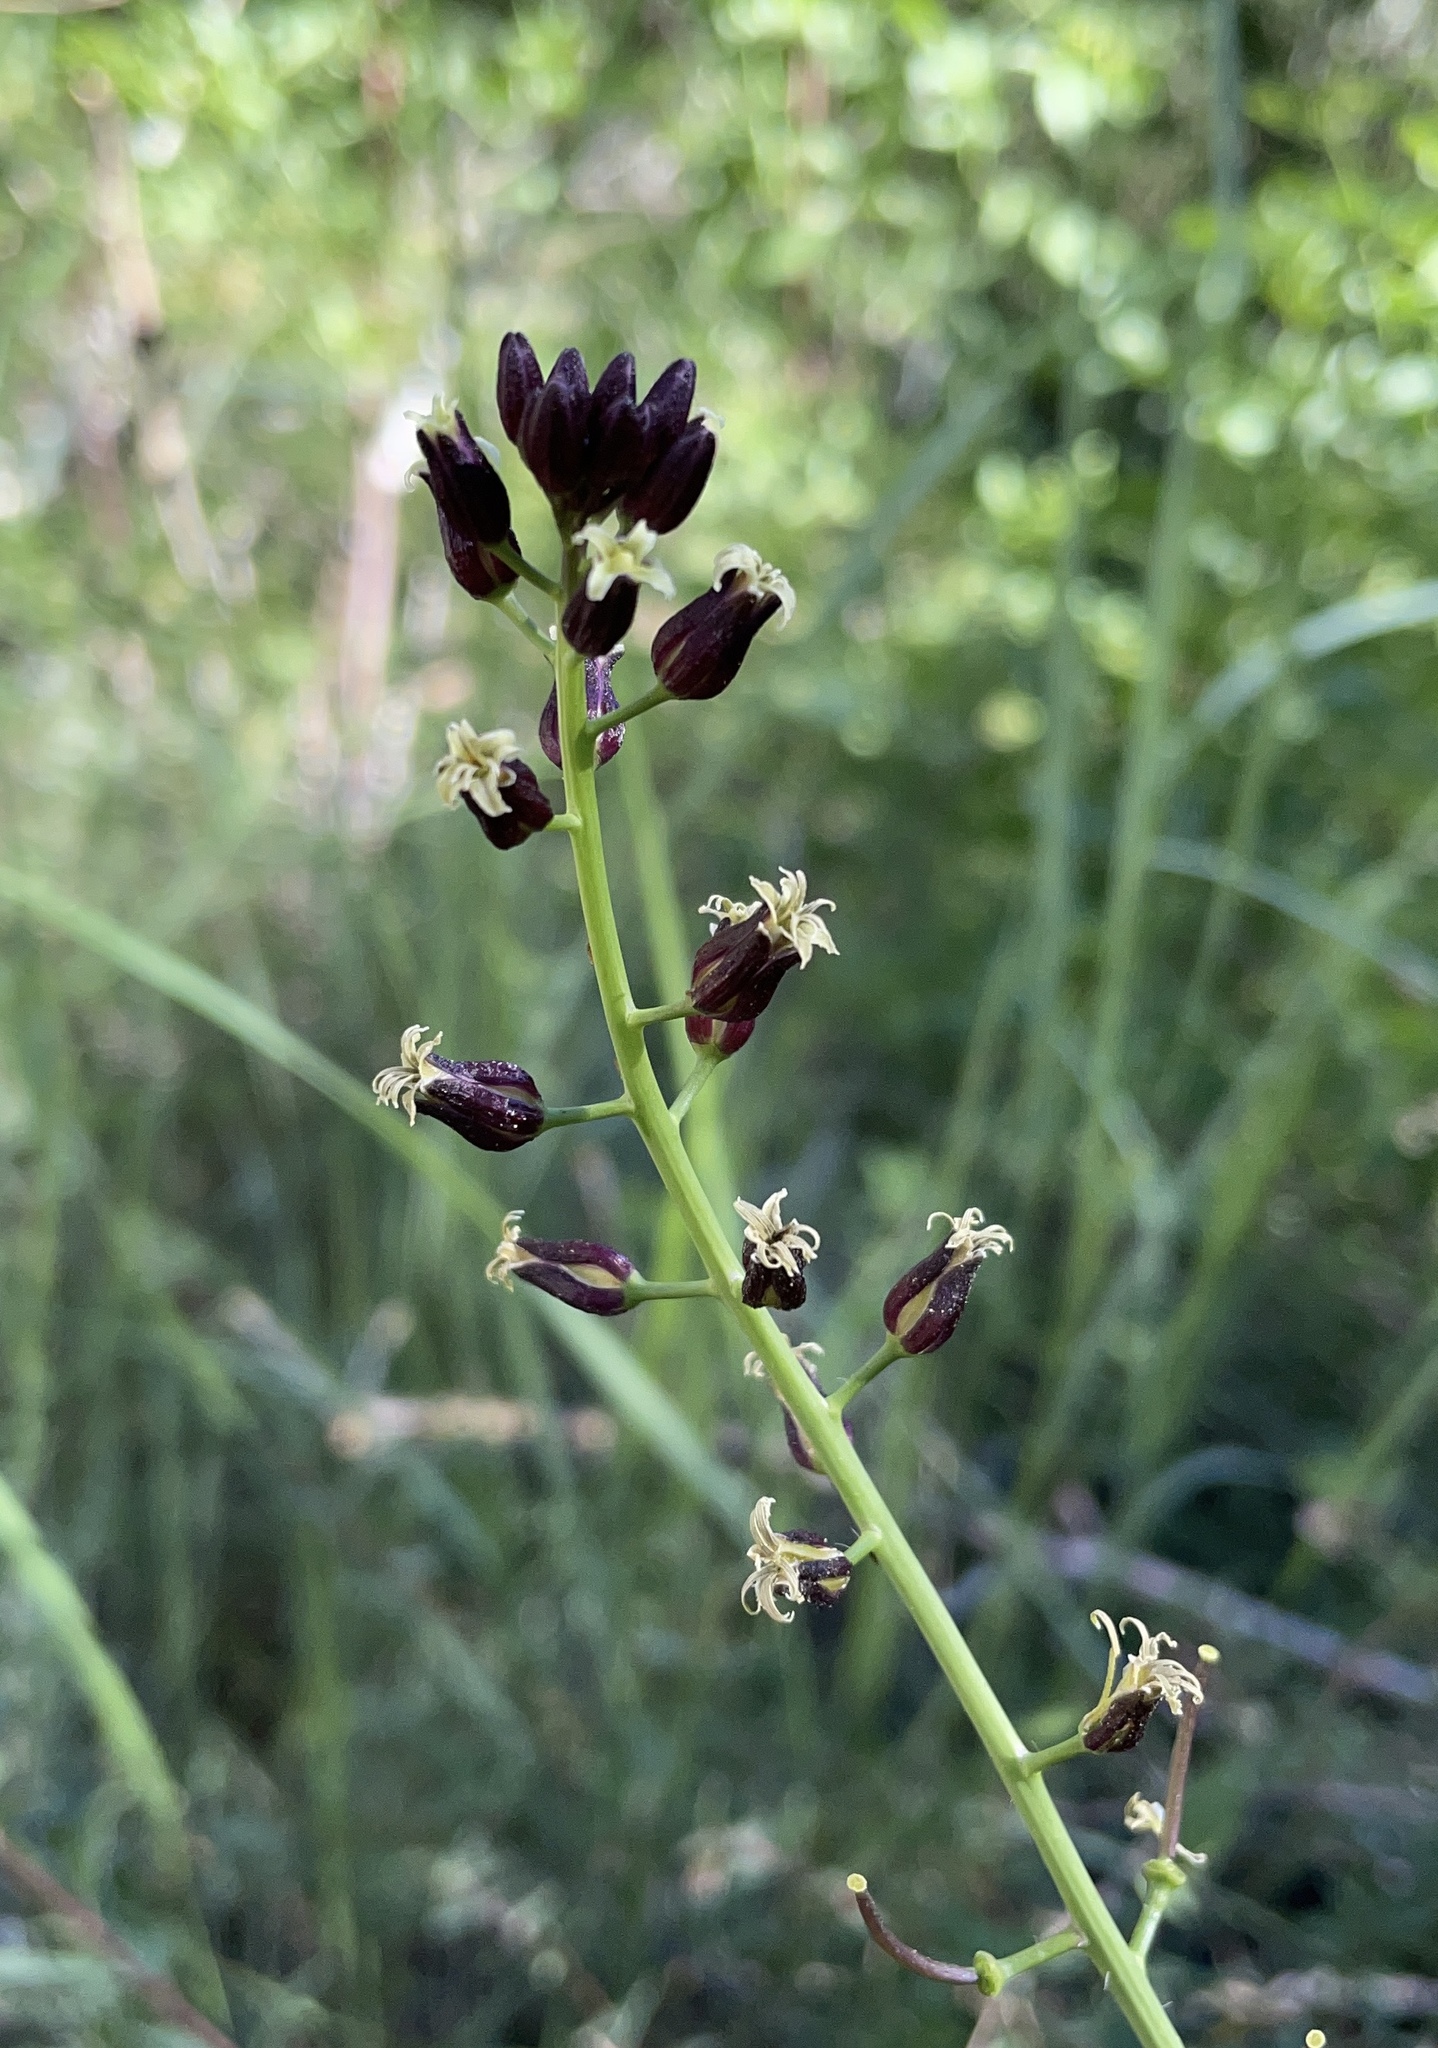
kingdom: Plantae
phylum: Tracheophyta
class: Magnoliopsida
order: Brassicales
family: Brassicaceae
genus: Streptanthus
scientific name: Streptanthus pilosus
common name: Chocolate drops
